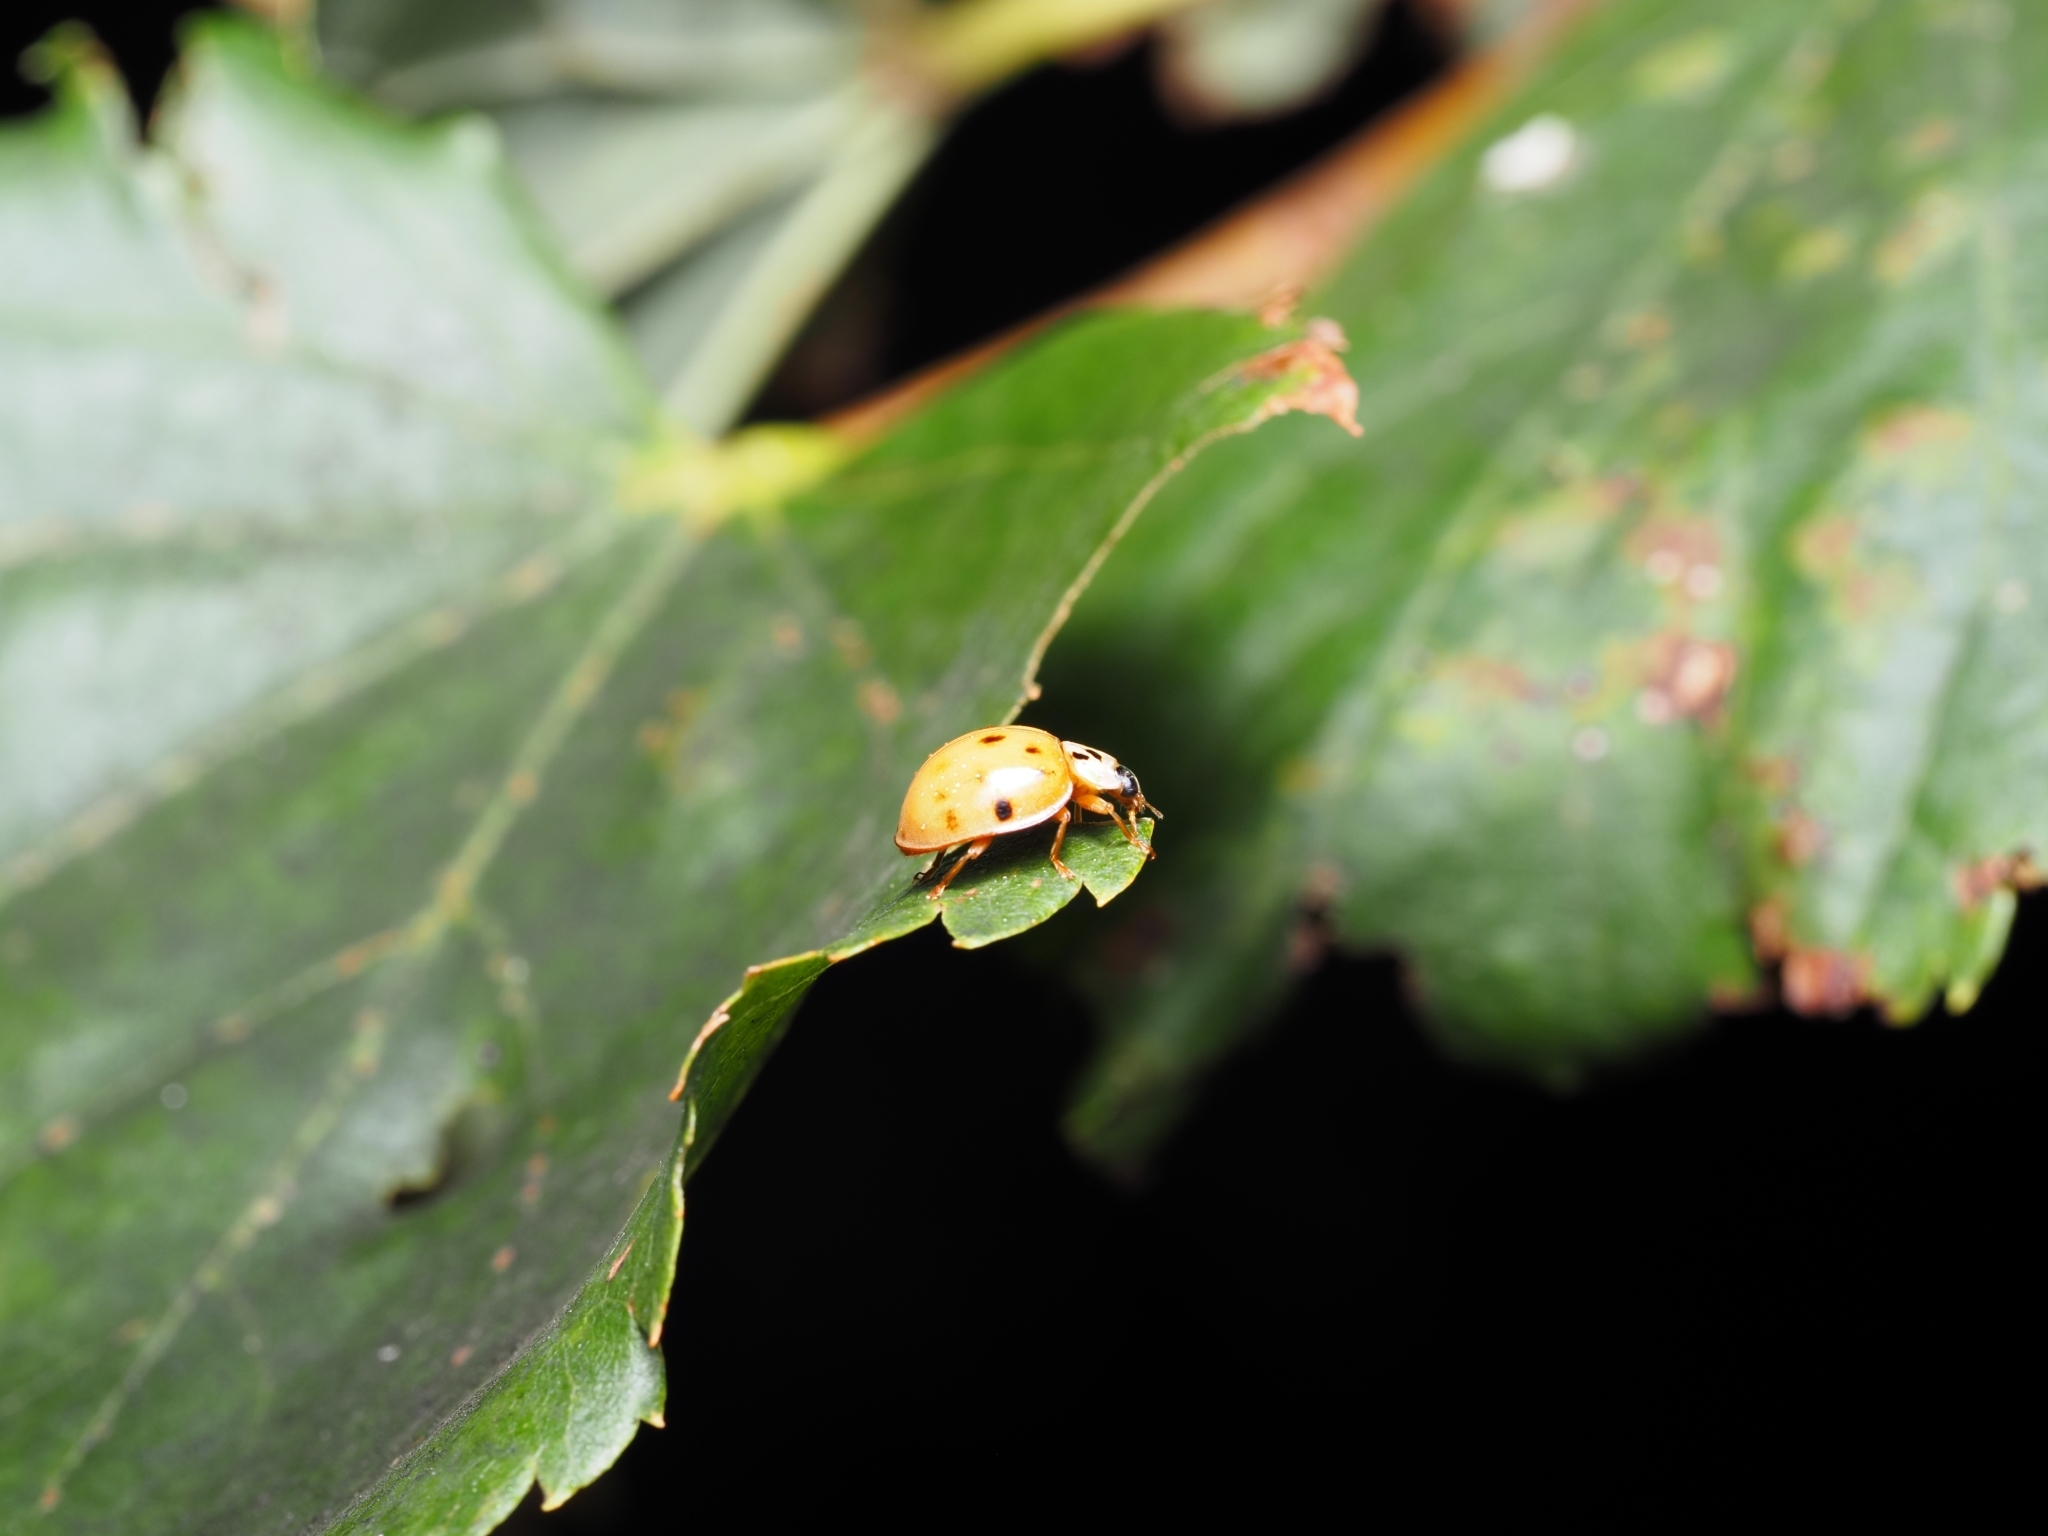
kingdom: Animalia
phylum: Arthropoda
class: Insecta
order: Coleoptera
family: Coccinellidae
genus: Harmonia
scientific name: Harmonia axyridis
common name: Harlequin ladybird
